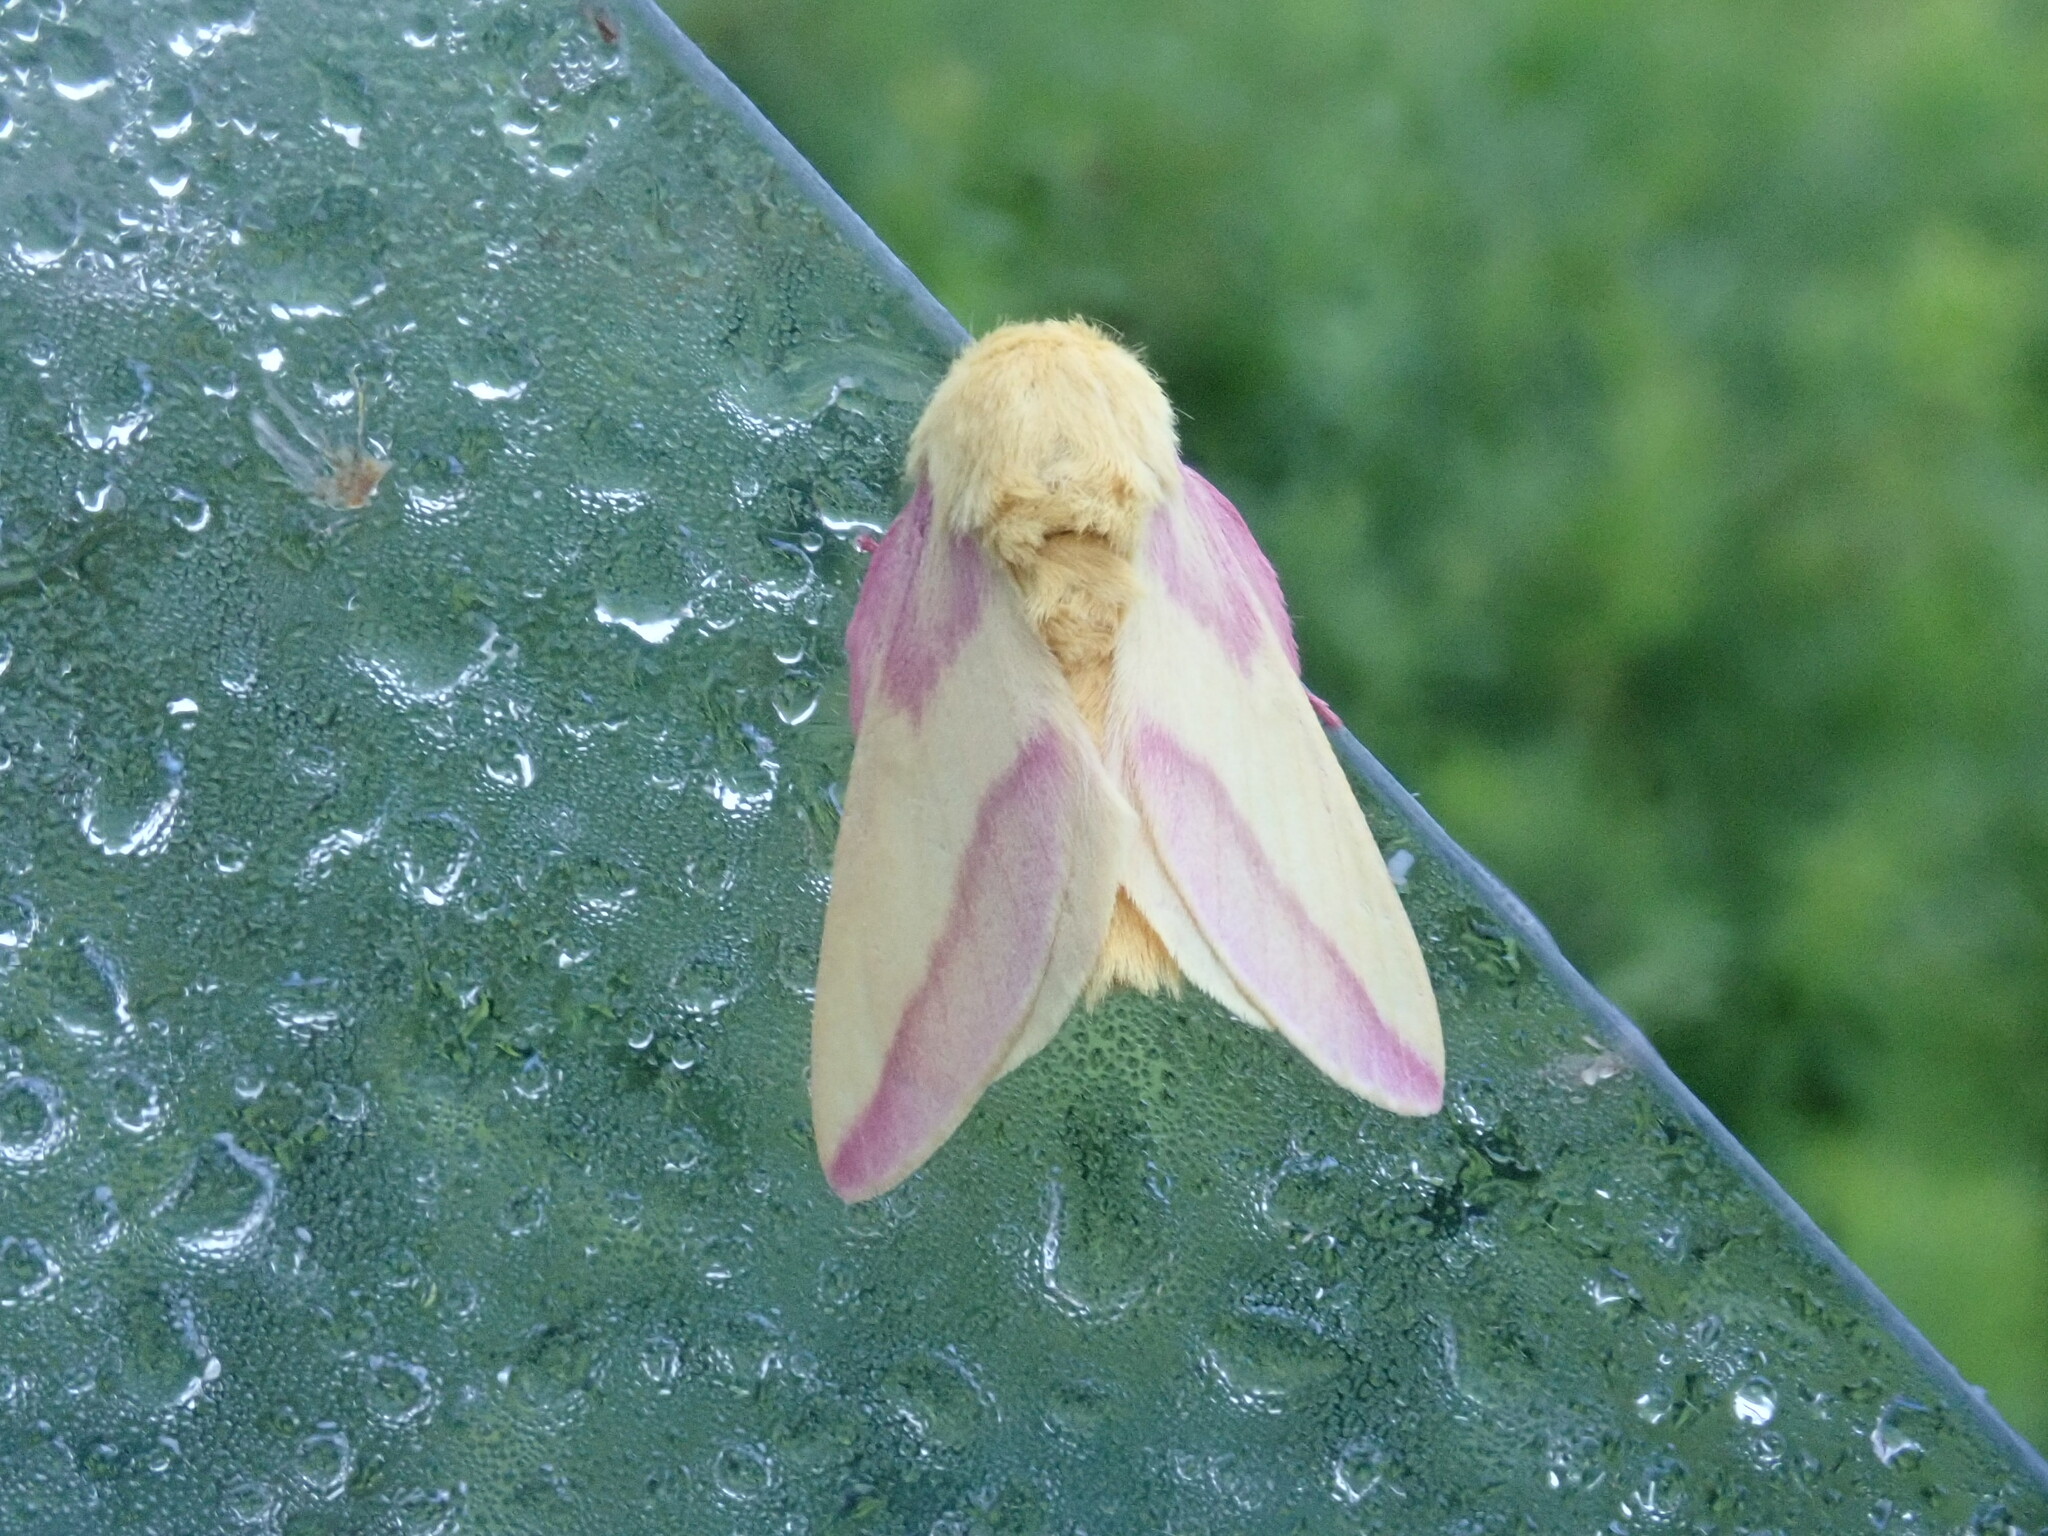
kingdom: Animalia
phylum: Arthropoda
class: Insecta
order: Lepidoptera
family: Saturniidae
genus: Dryocampa
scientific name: Dryocampa rubicunda
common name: Rosy maple moth
